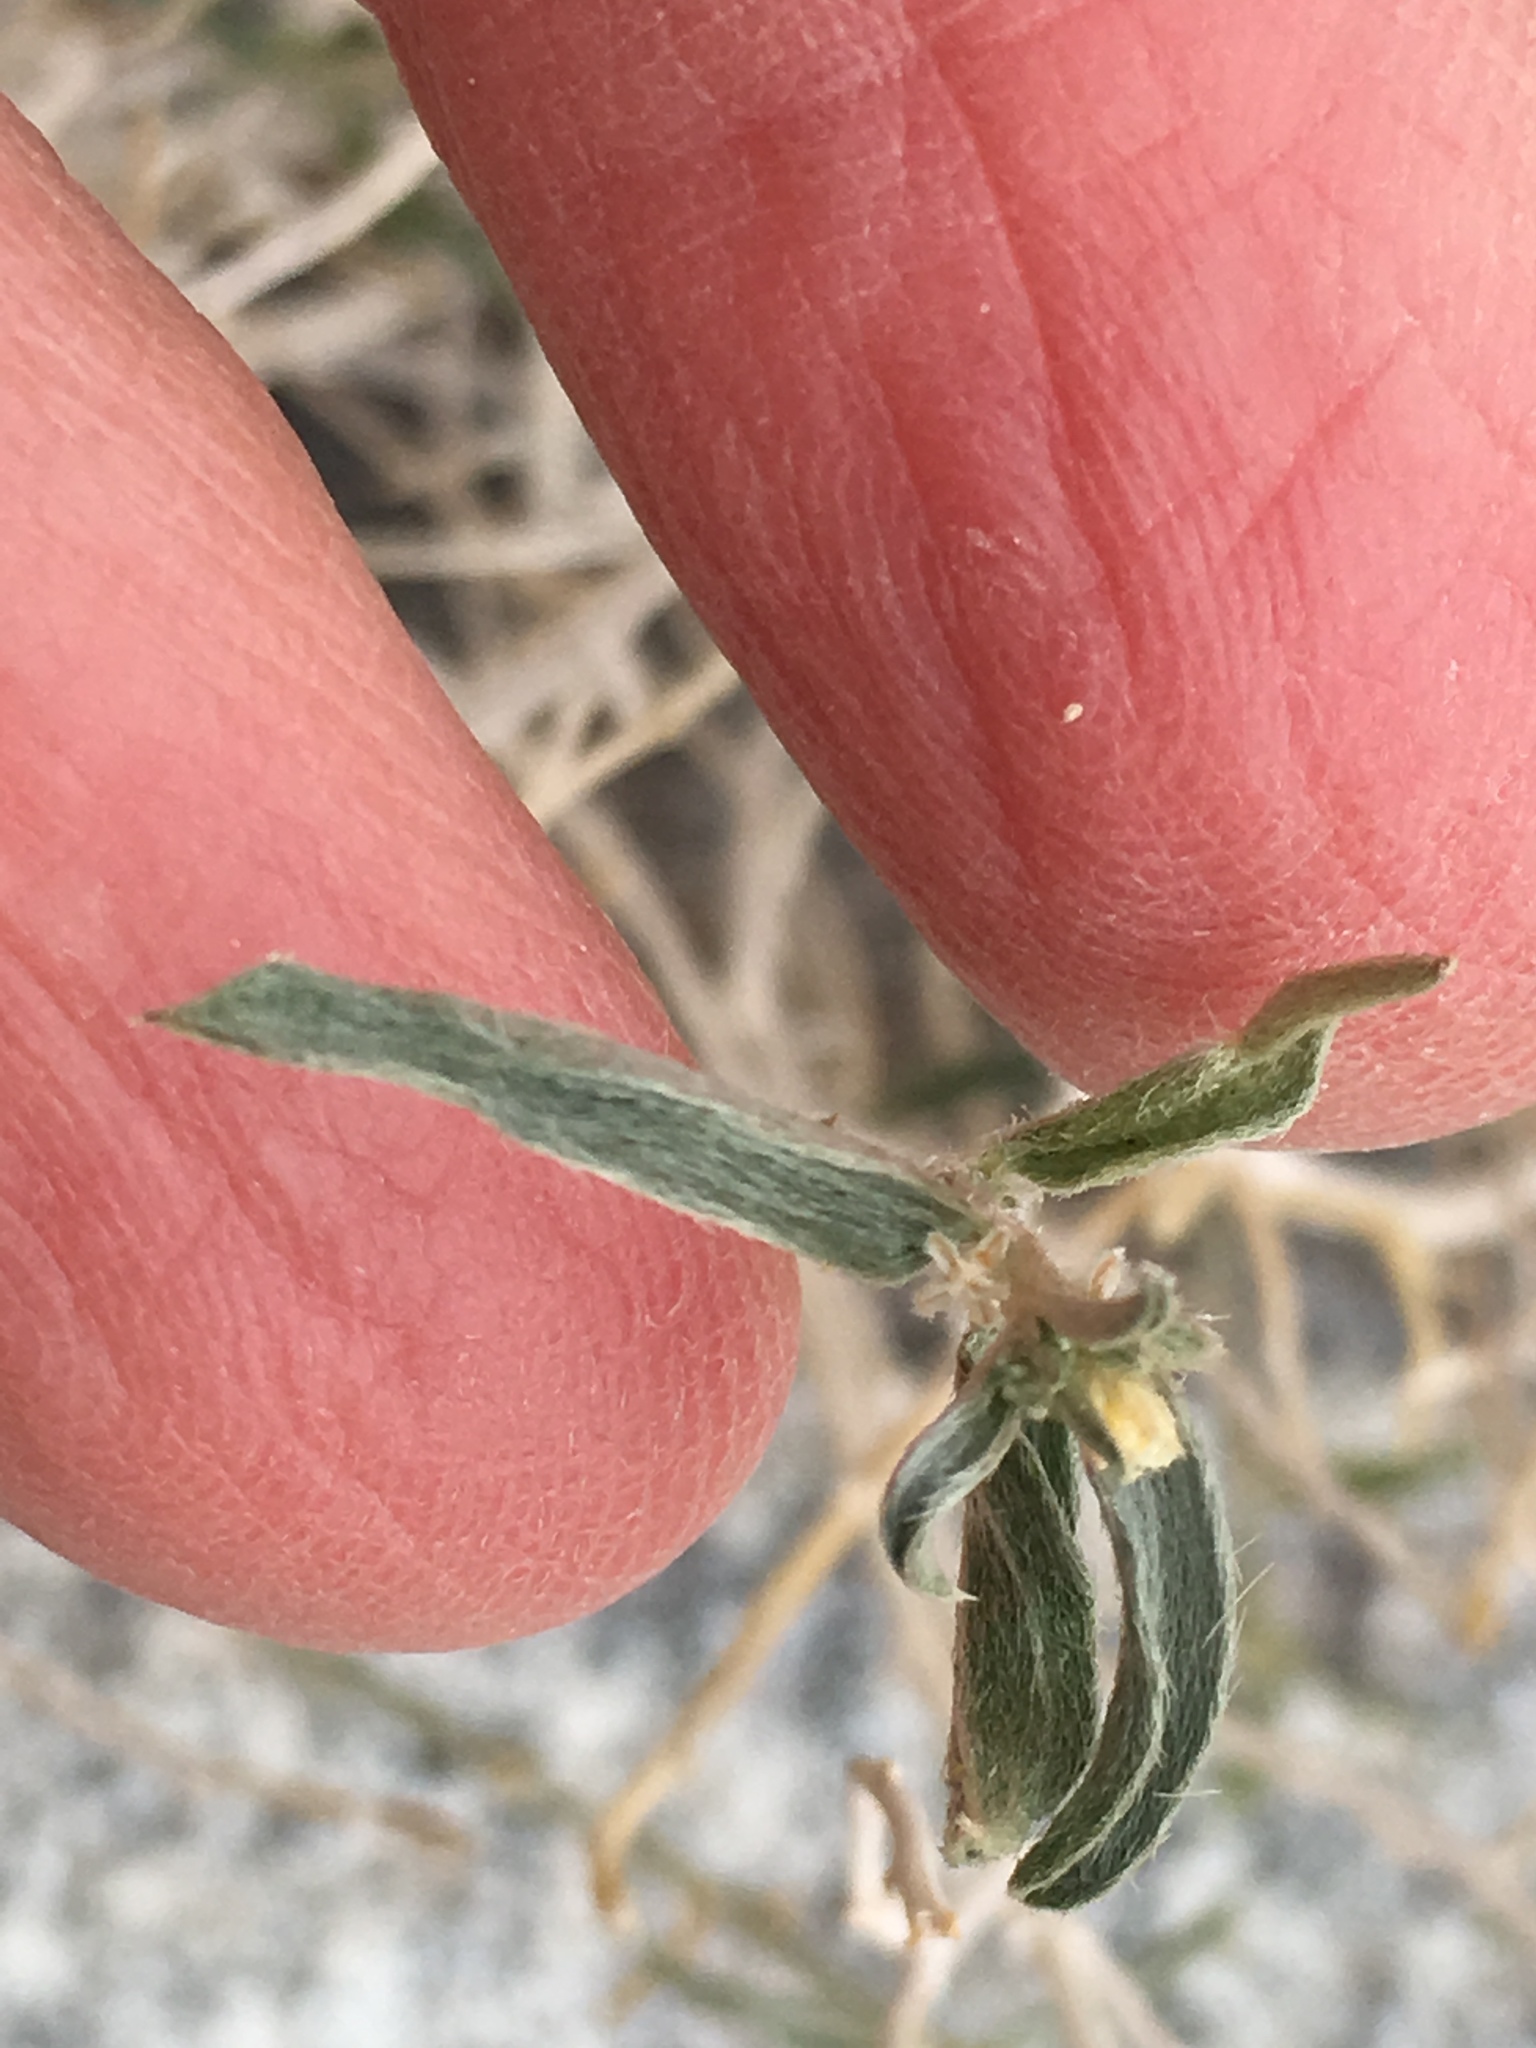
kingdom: Plantae
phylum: Tracheophyta
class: Magnoliopsida
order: Malpighiales
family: Euphorbiaceae
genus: Ditaxis
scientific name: Ditaxis lanceolata
